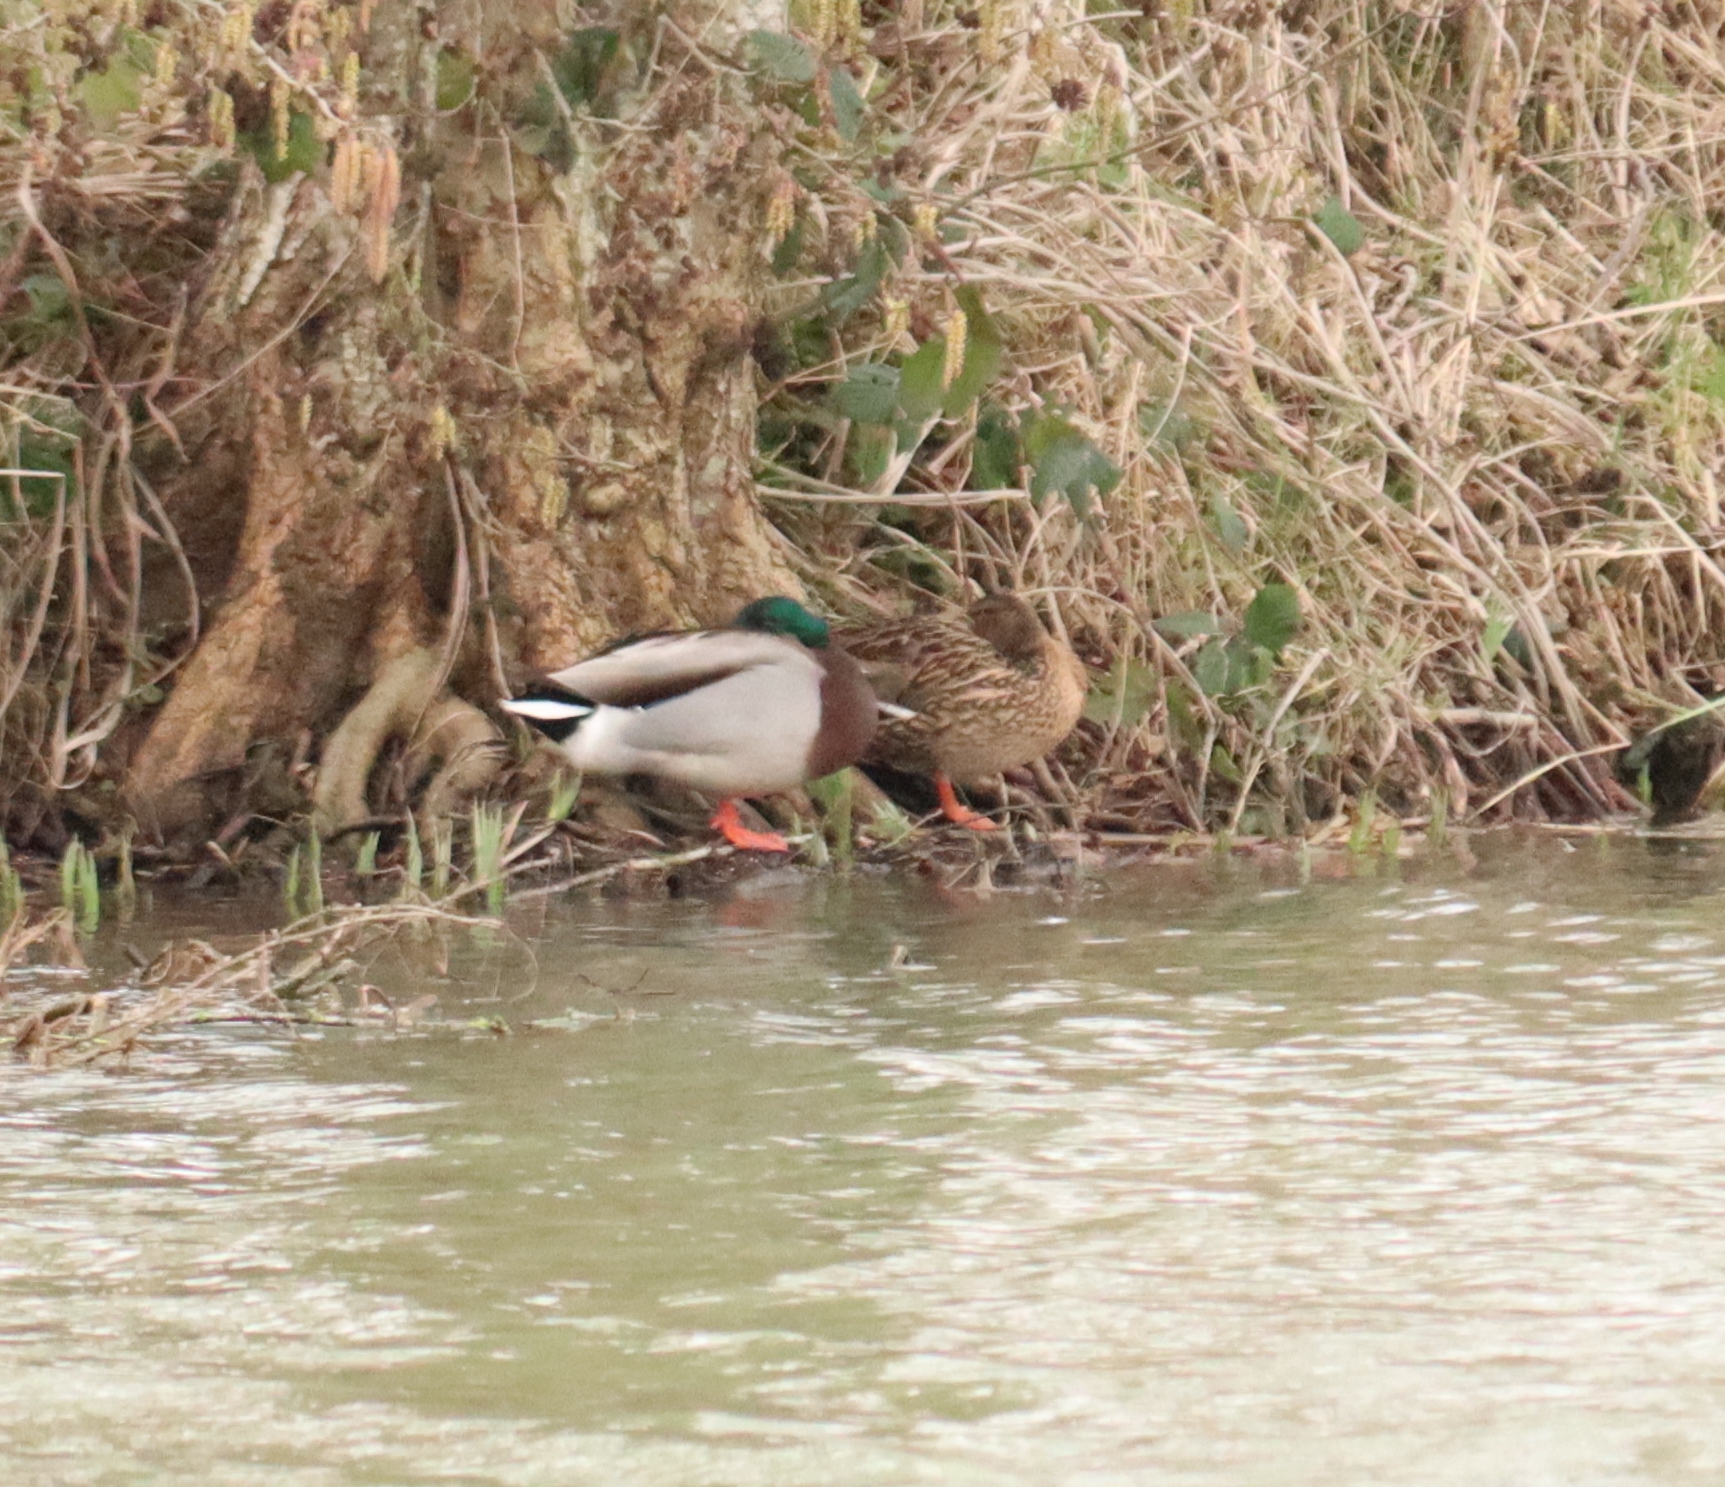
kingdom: Animalia
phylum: Chordata
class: Aves
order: Anseriformes
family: Anatidae
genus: Anas
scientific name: Anas platyrhynchos
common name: Mallard
